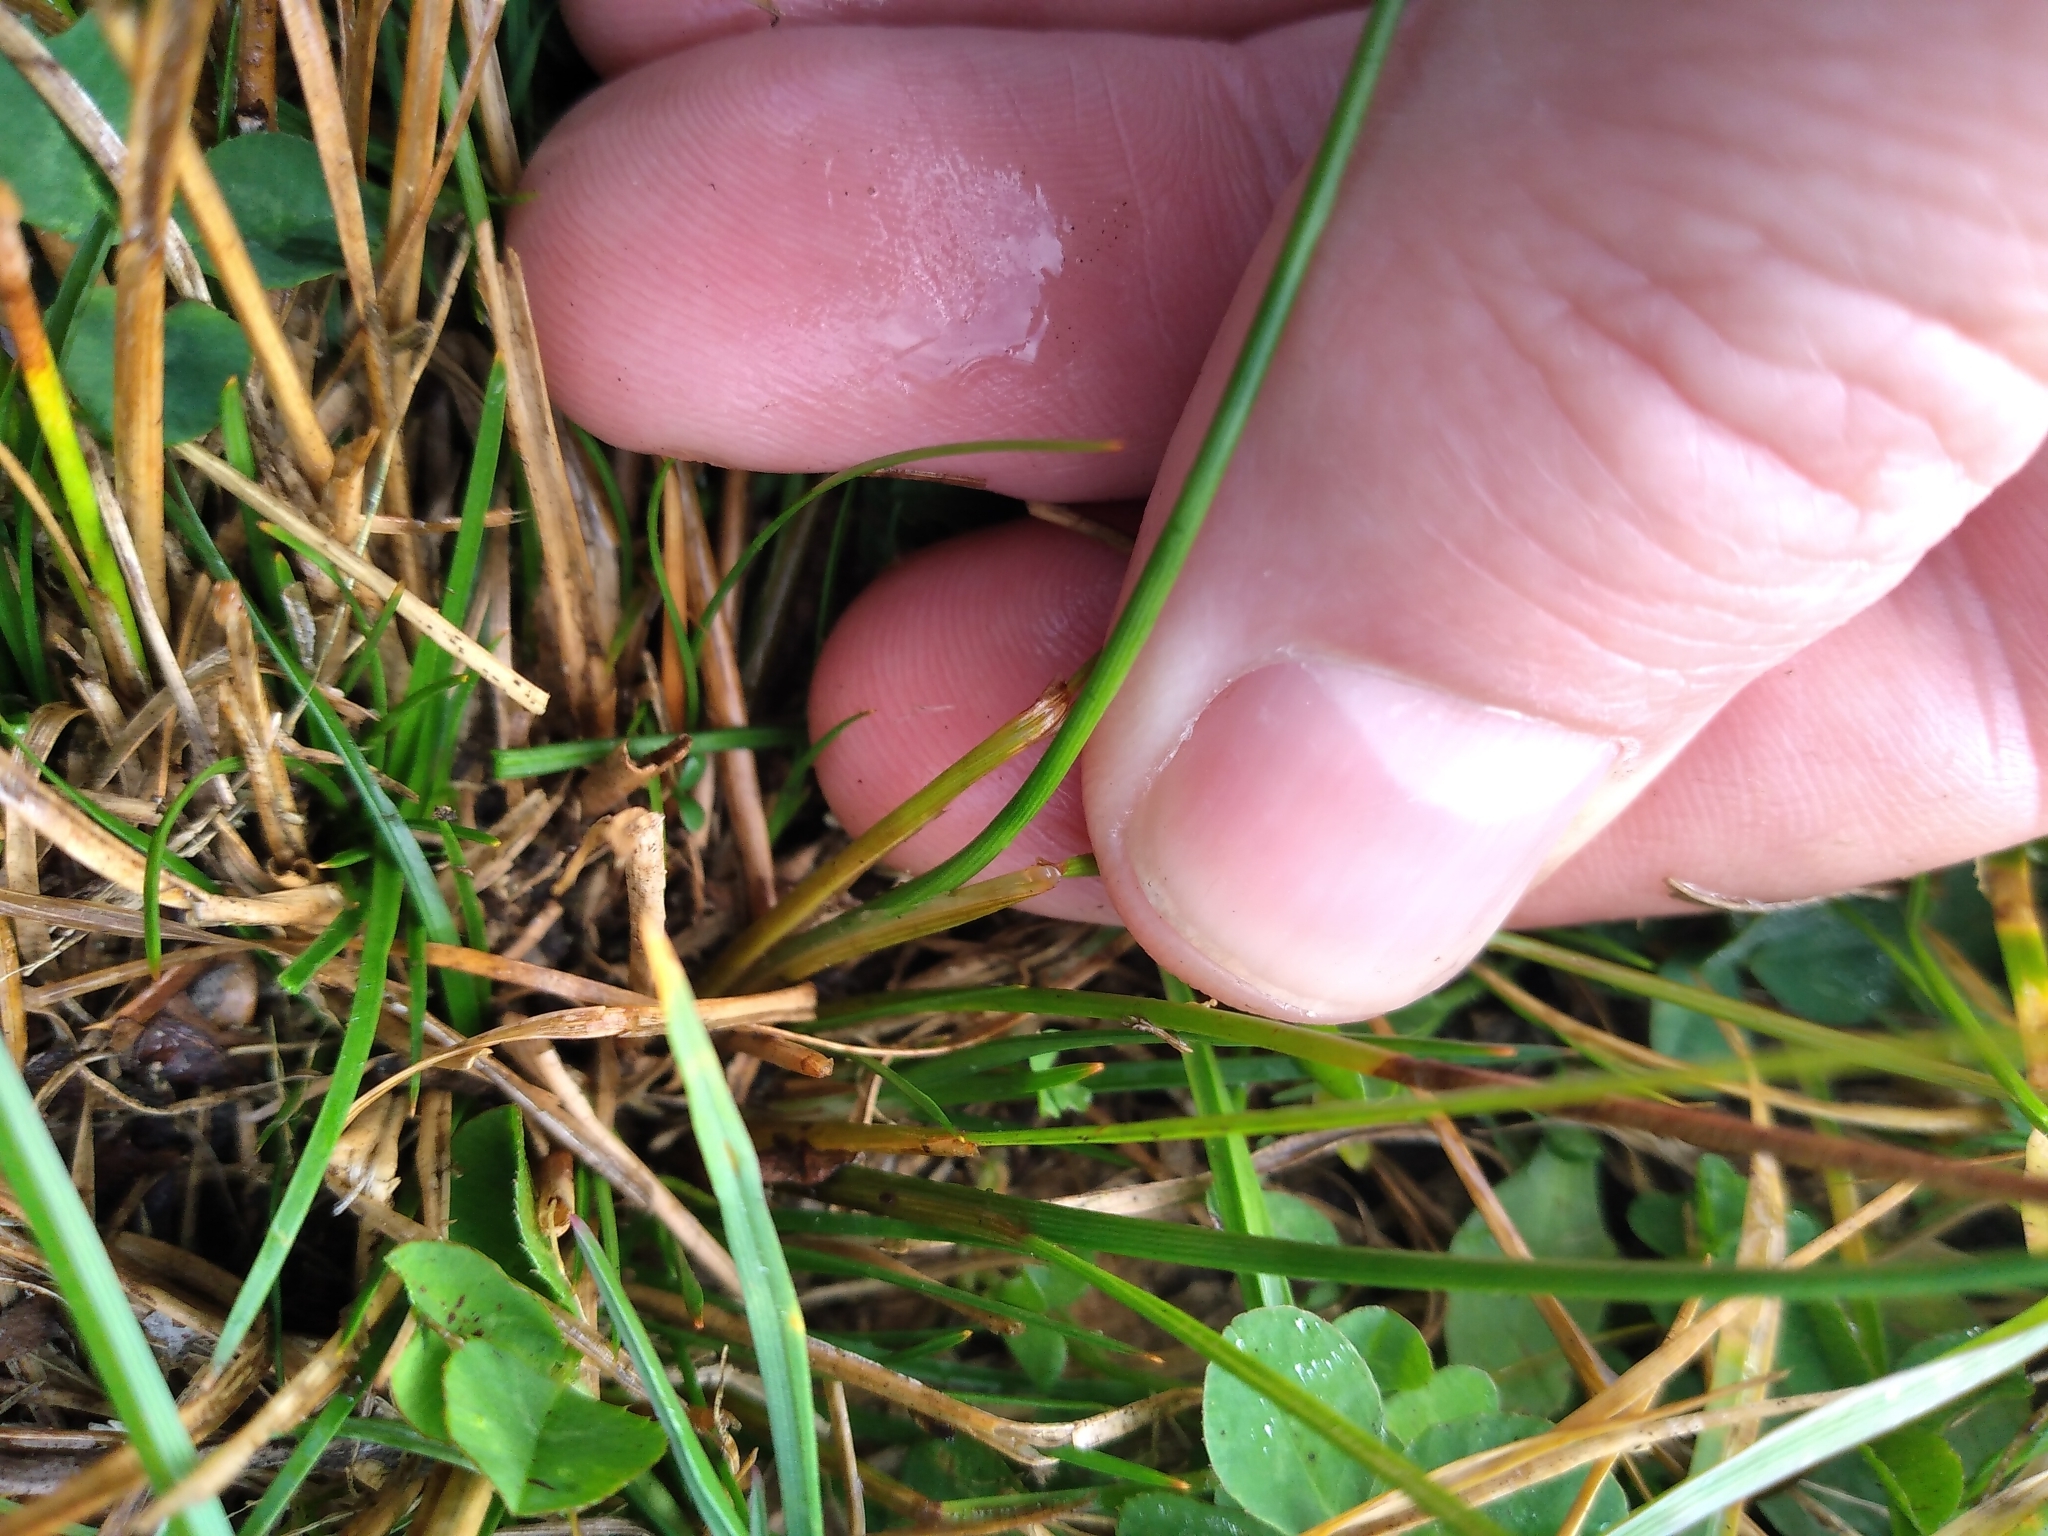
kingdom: Plantae
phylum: Tracheophyta
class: Liliopsida
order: Poales
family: Juncaceae
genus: Juncus
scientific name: Juncus tenuis
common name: Slender rush
